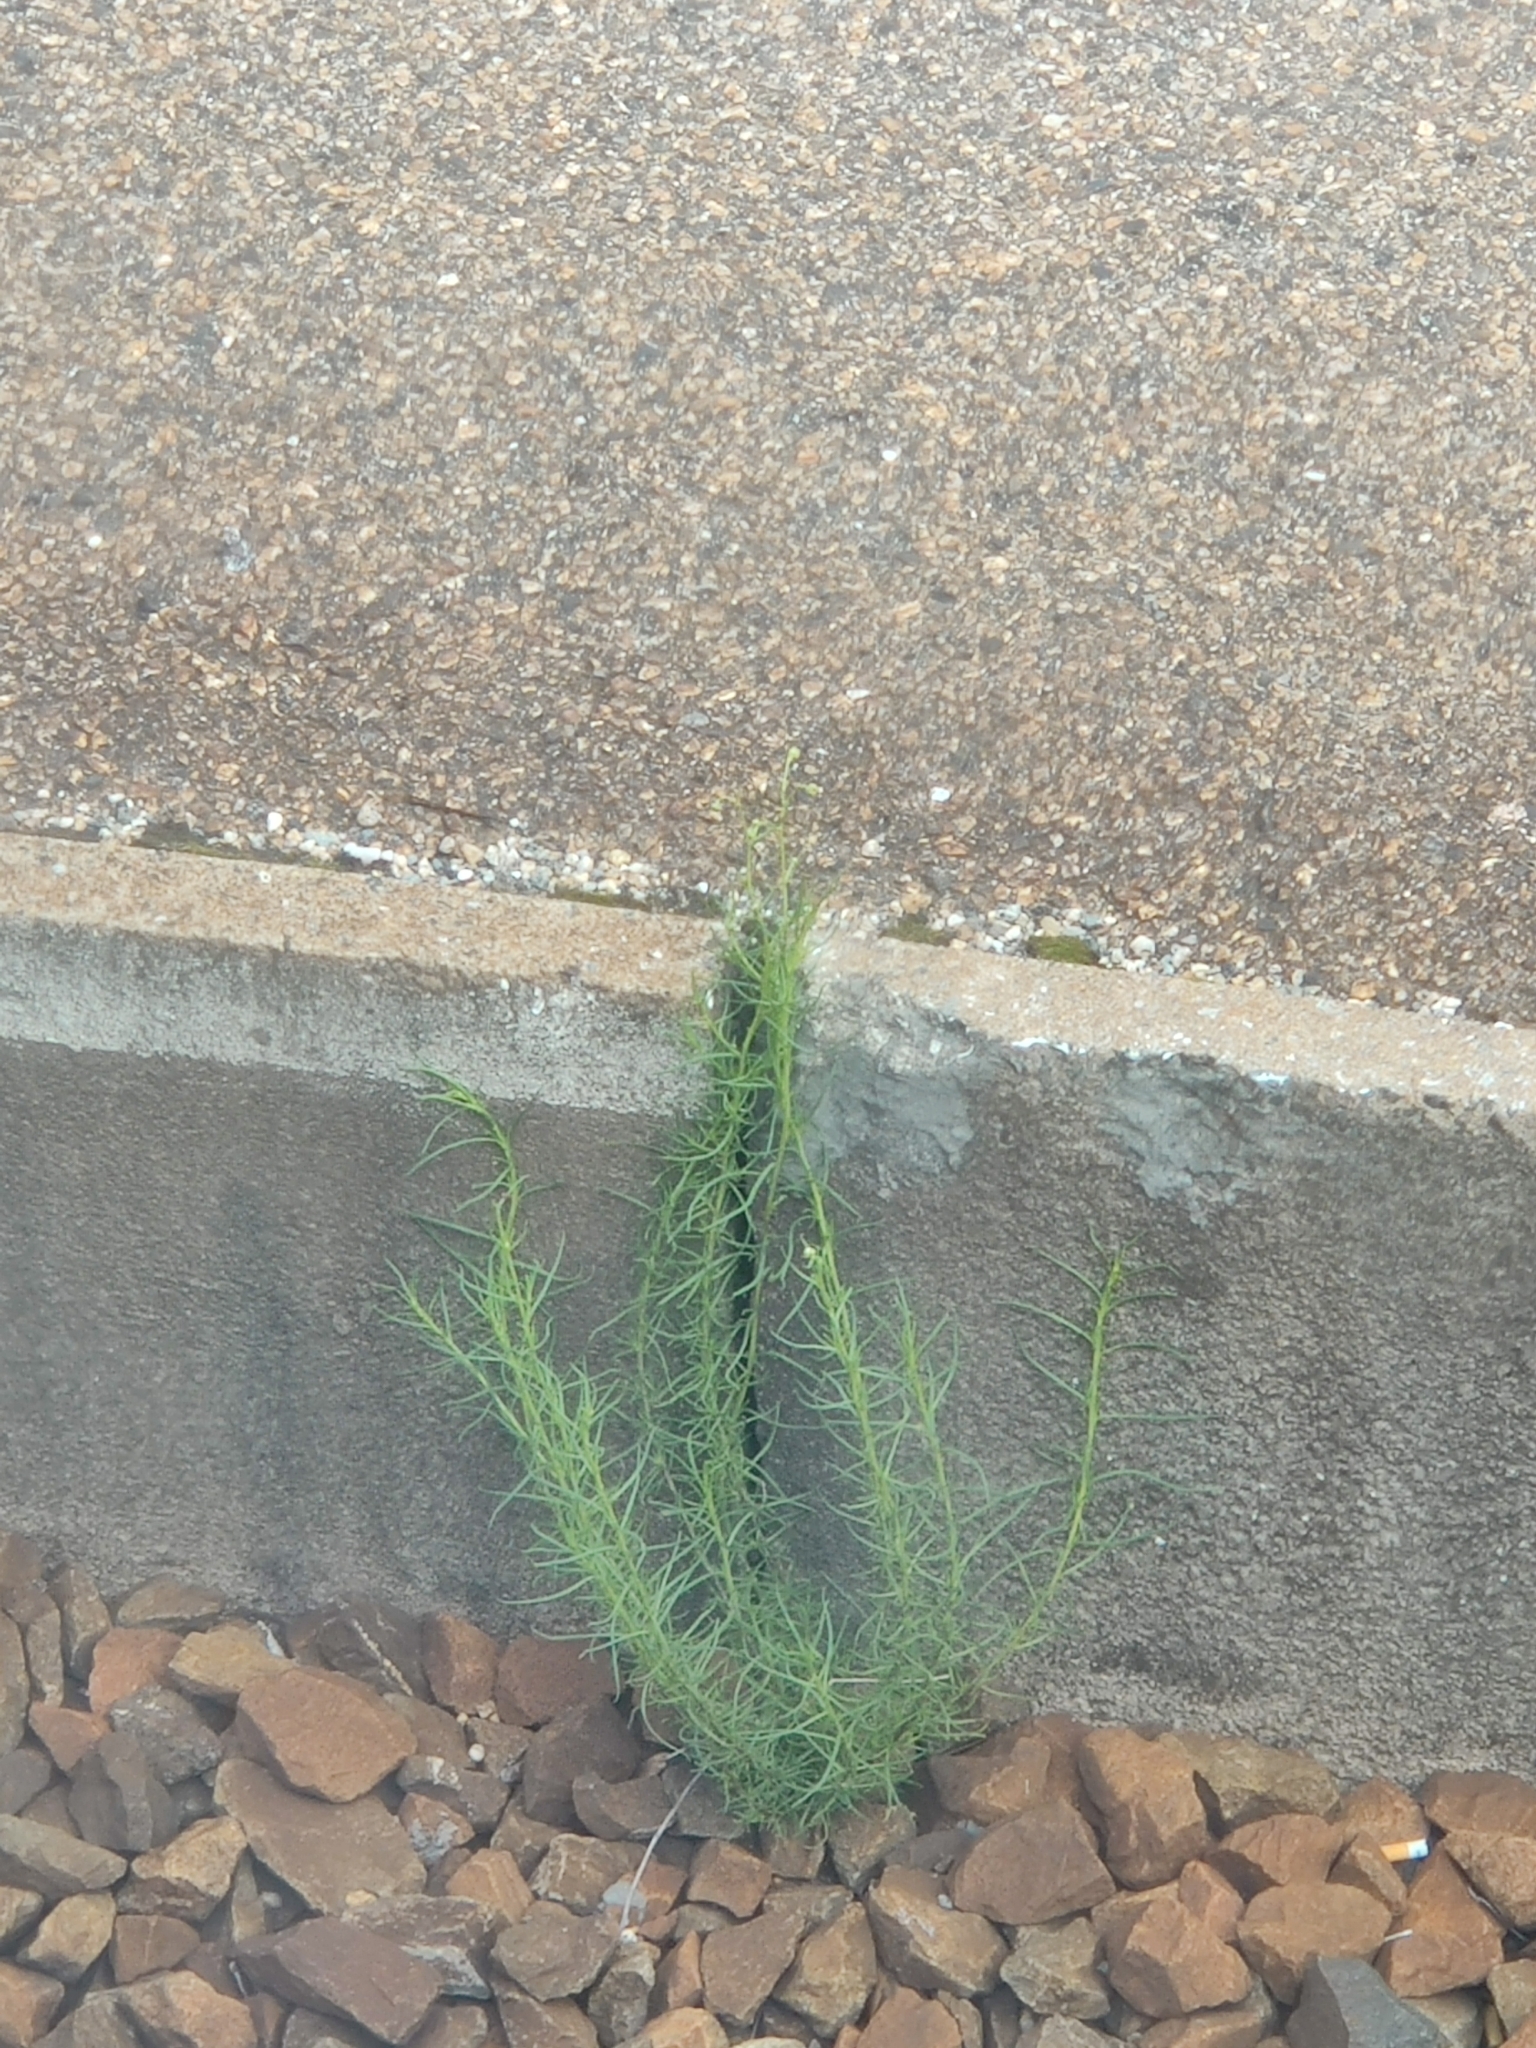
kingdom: Plantae
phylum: Tracheophyta
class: Magnoliopsida
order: Asterales
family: Asteraceae
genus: Senecio
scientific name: Senecio inaequidens
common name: Narrow-leaved ragwort
